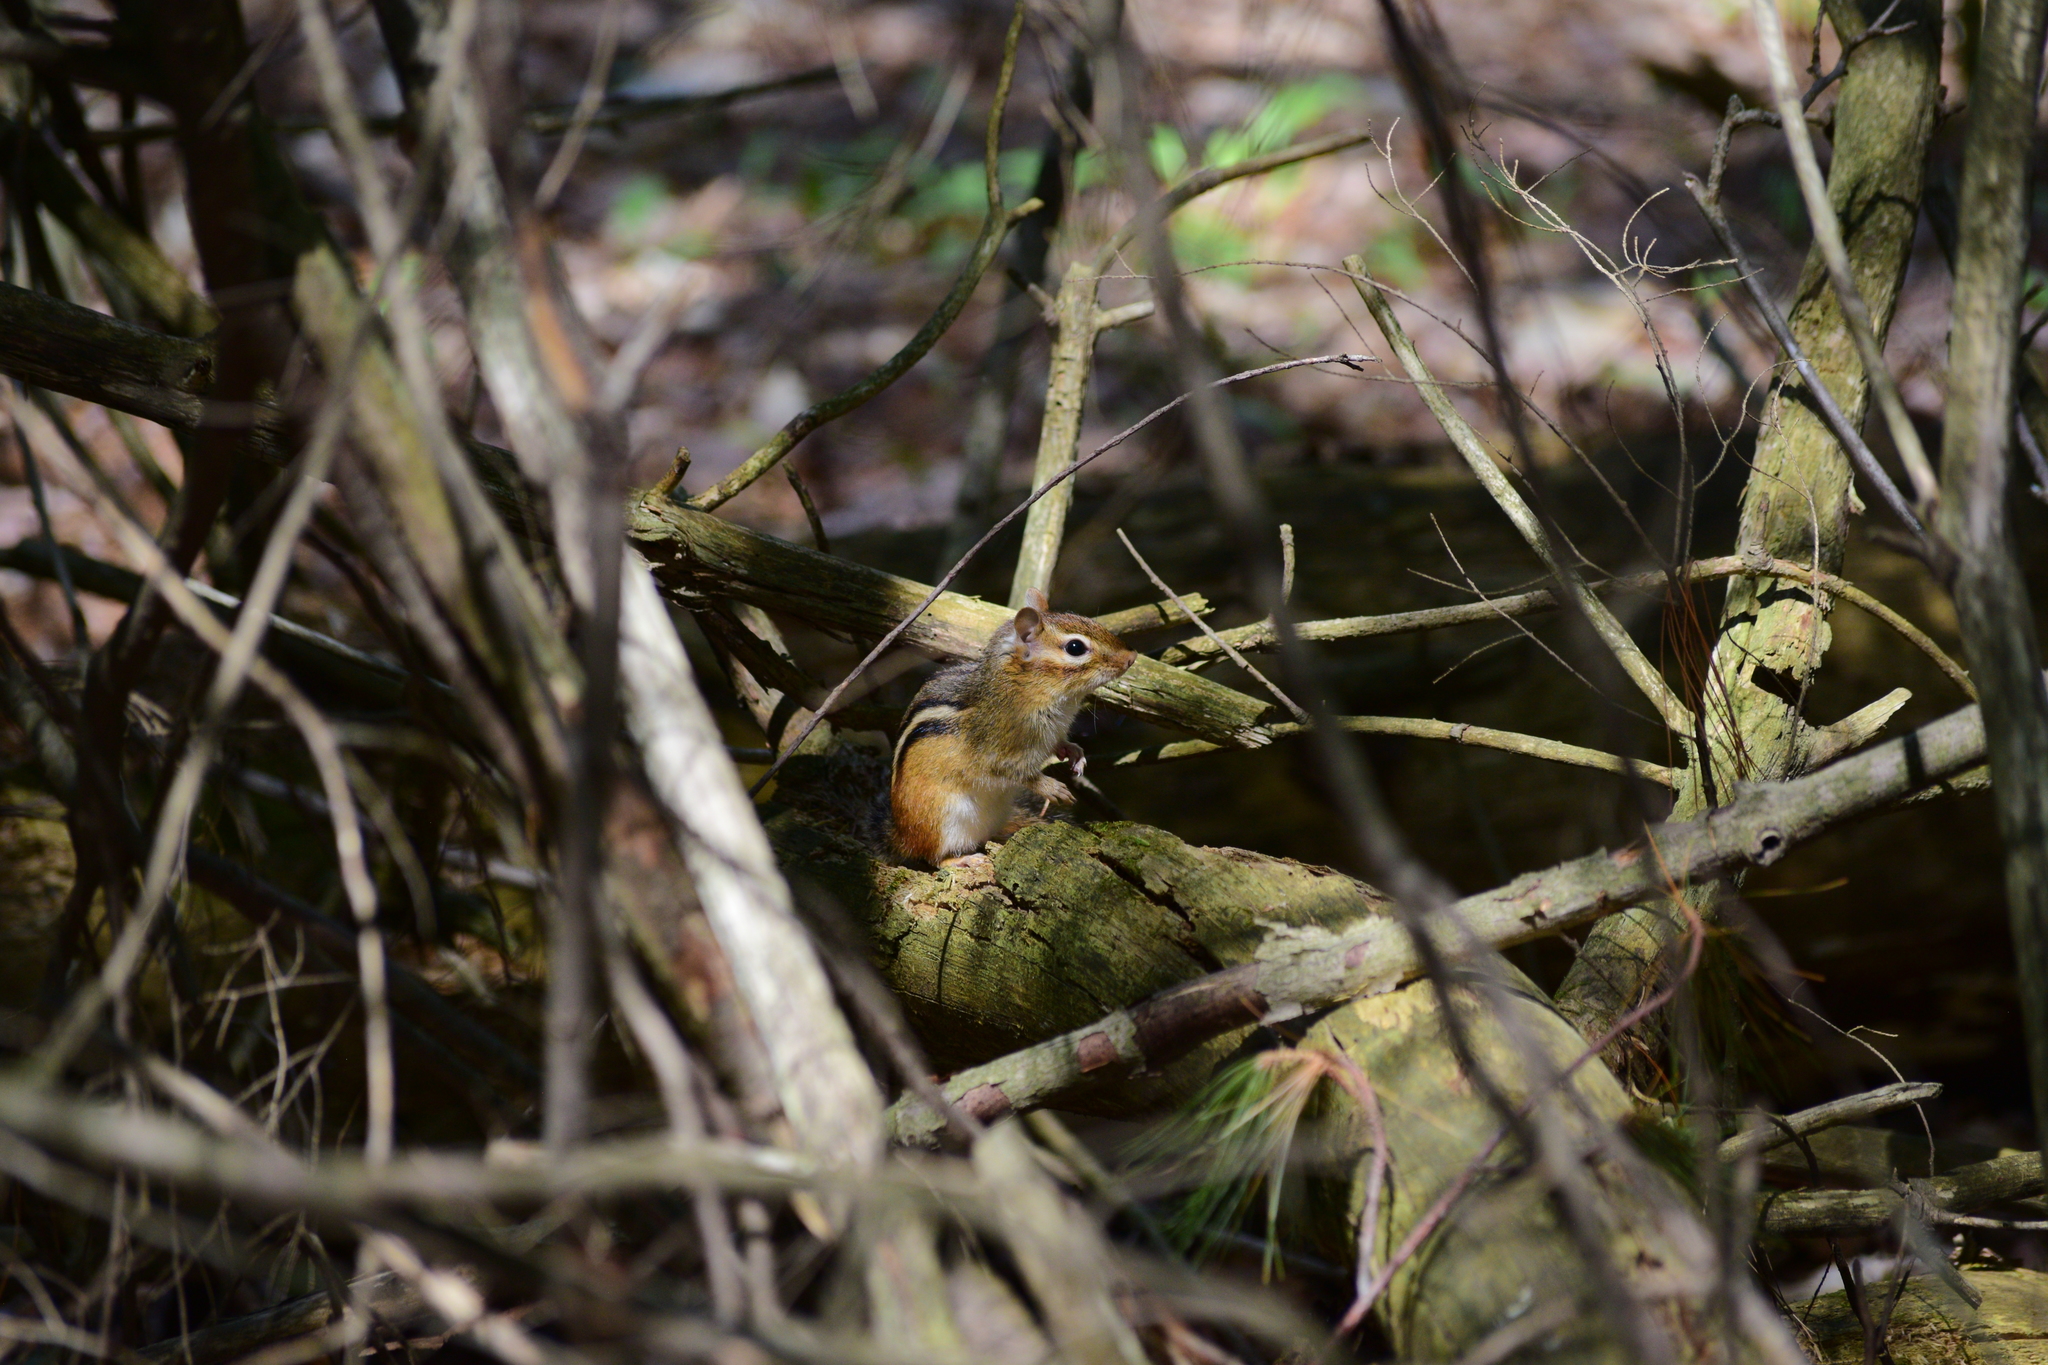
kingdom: Animalia
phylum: Chordata
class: Mammalia
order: Rodentia
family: Sciuridae
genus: Tamias
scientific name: Tamias striatus
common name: Eastern chipmunk
